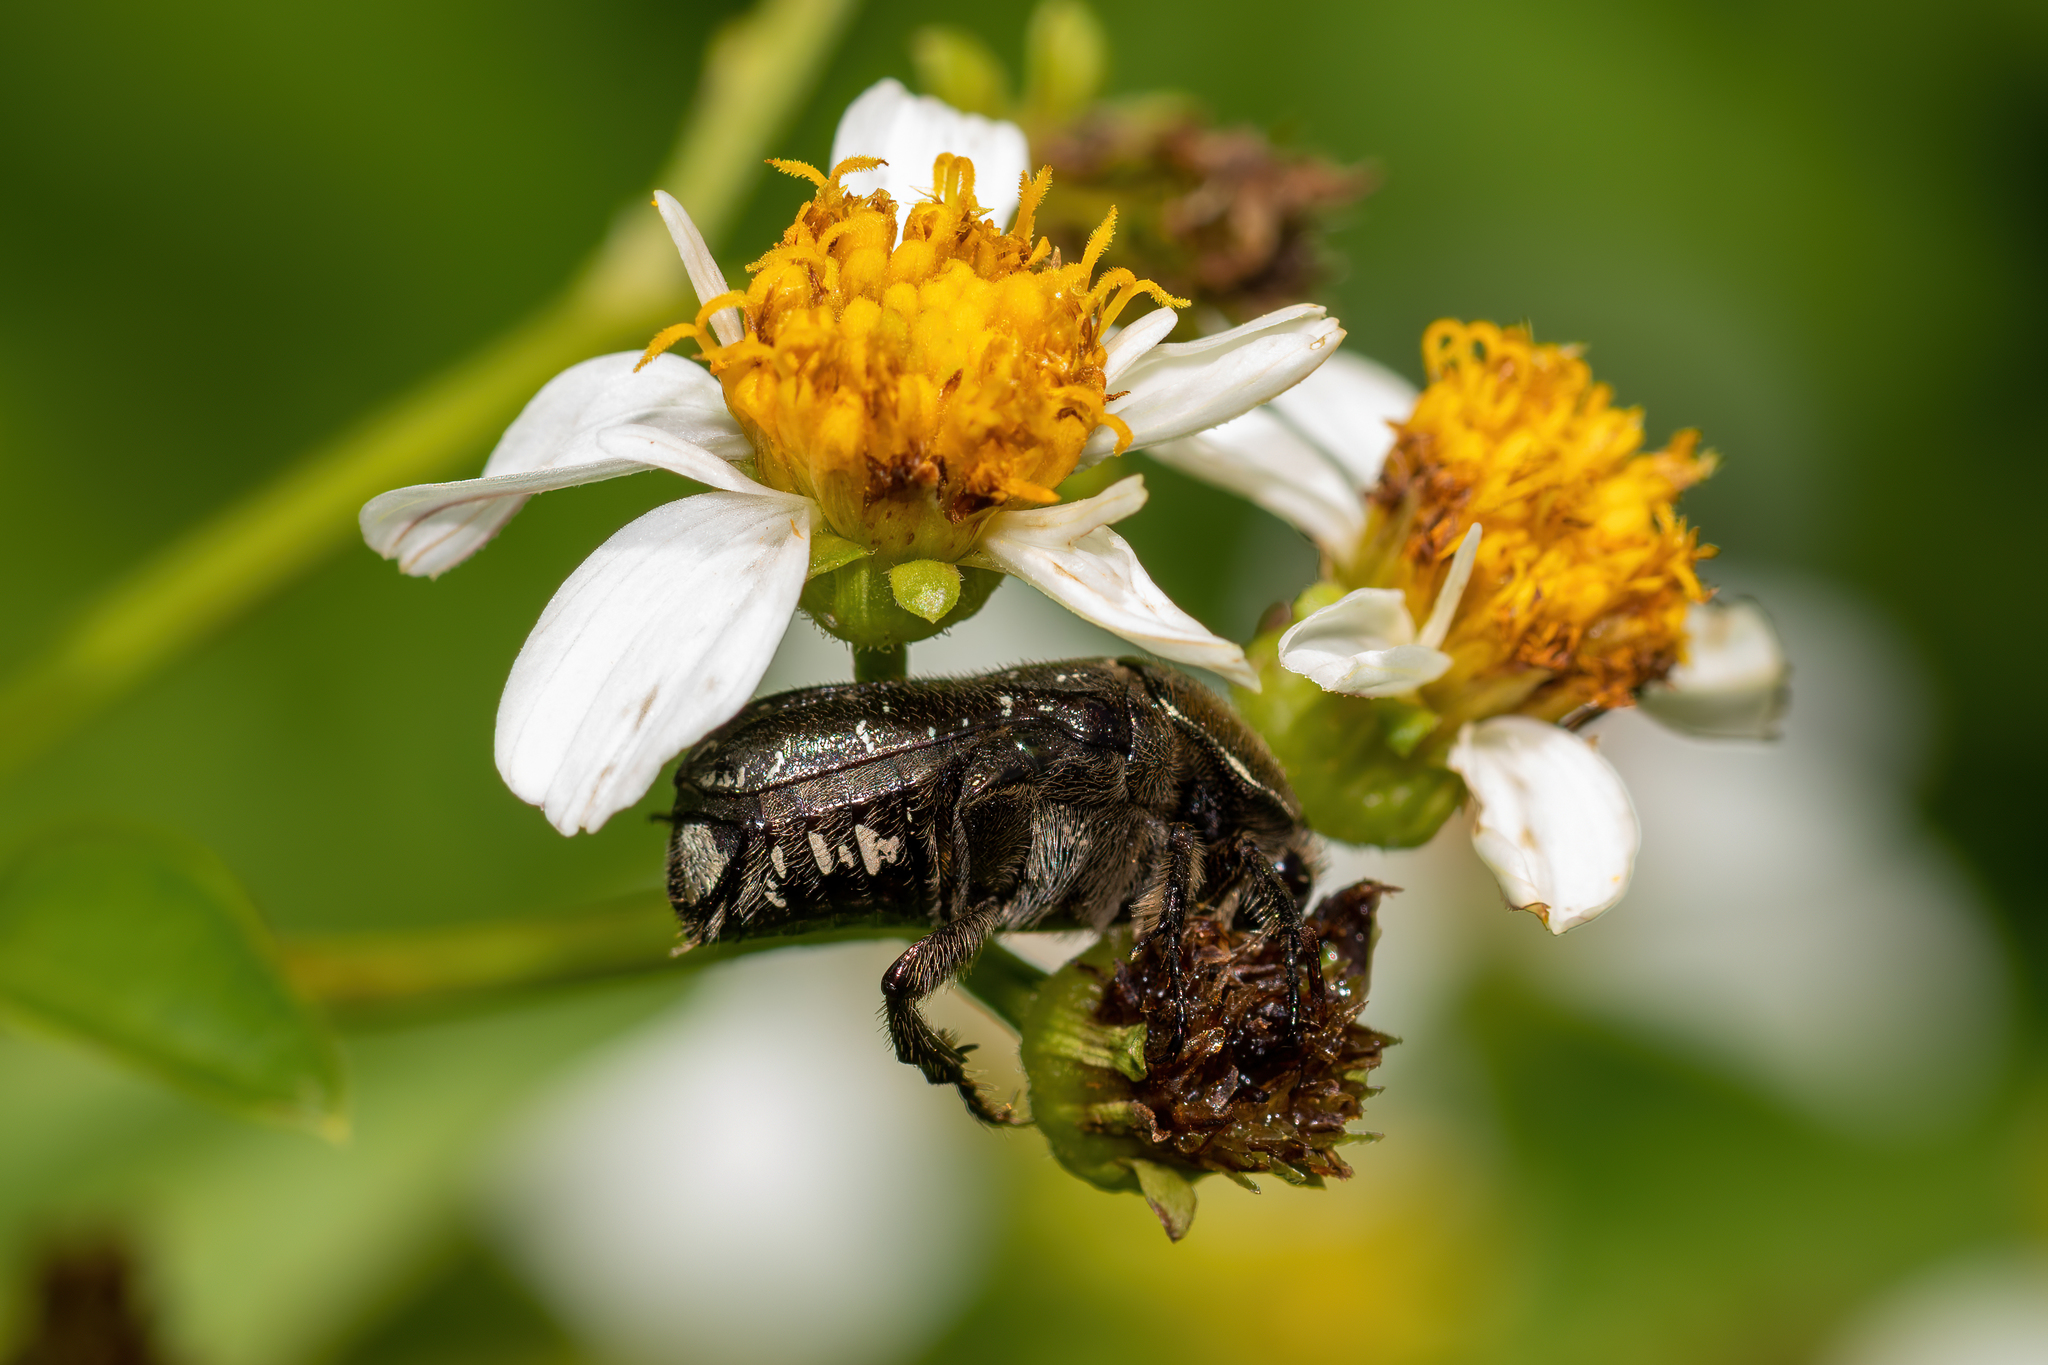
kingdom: Animalia
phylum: Arthropoda
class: Insecta
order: Coleoptera
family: Scarabaeidae
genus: Euphoria
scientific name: Euphoria sepulcralis
